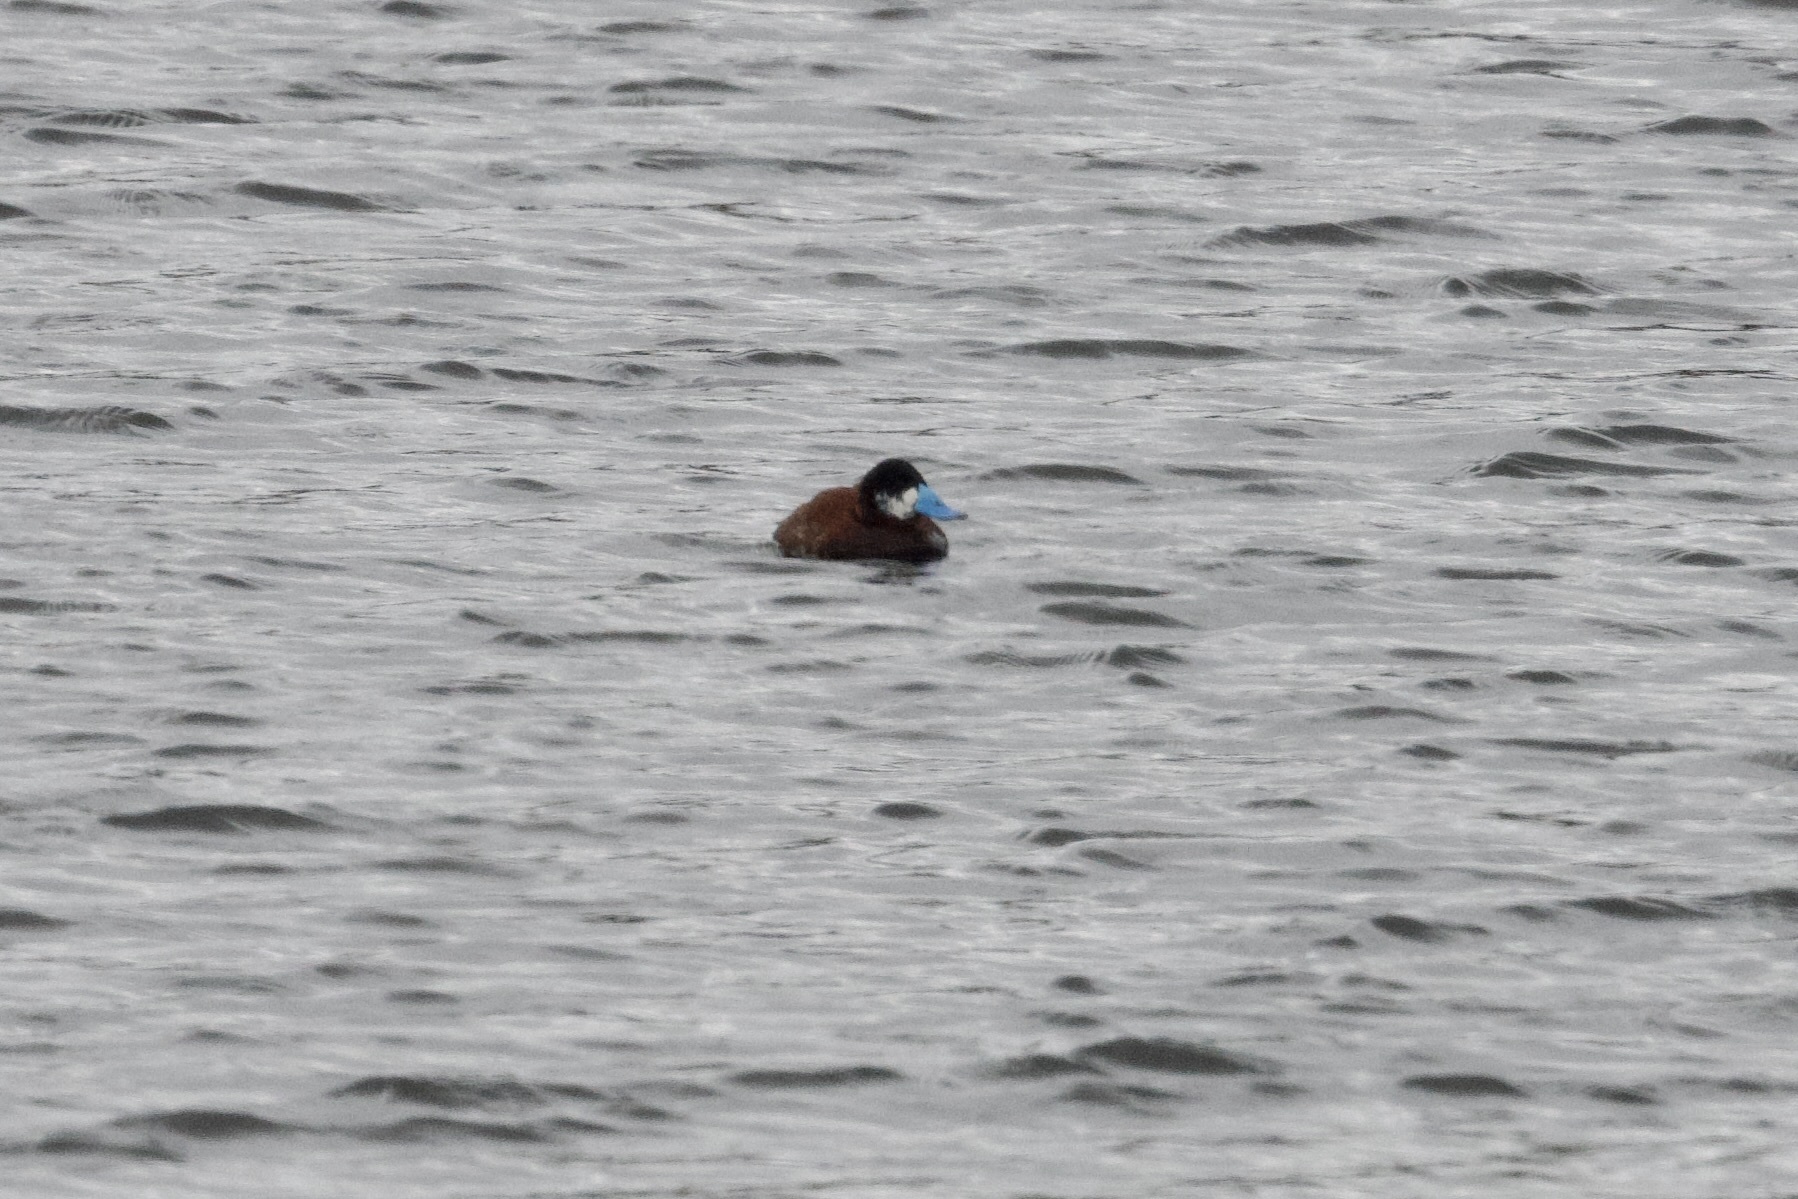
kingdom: Animalia
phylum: Chordata
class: Aves
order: Anseriformes
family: Anatidae
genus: Oxyura
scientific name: Oxyura ferruginea
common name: Andean duck
